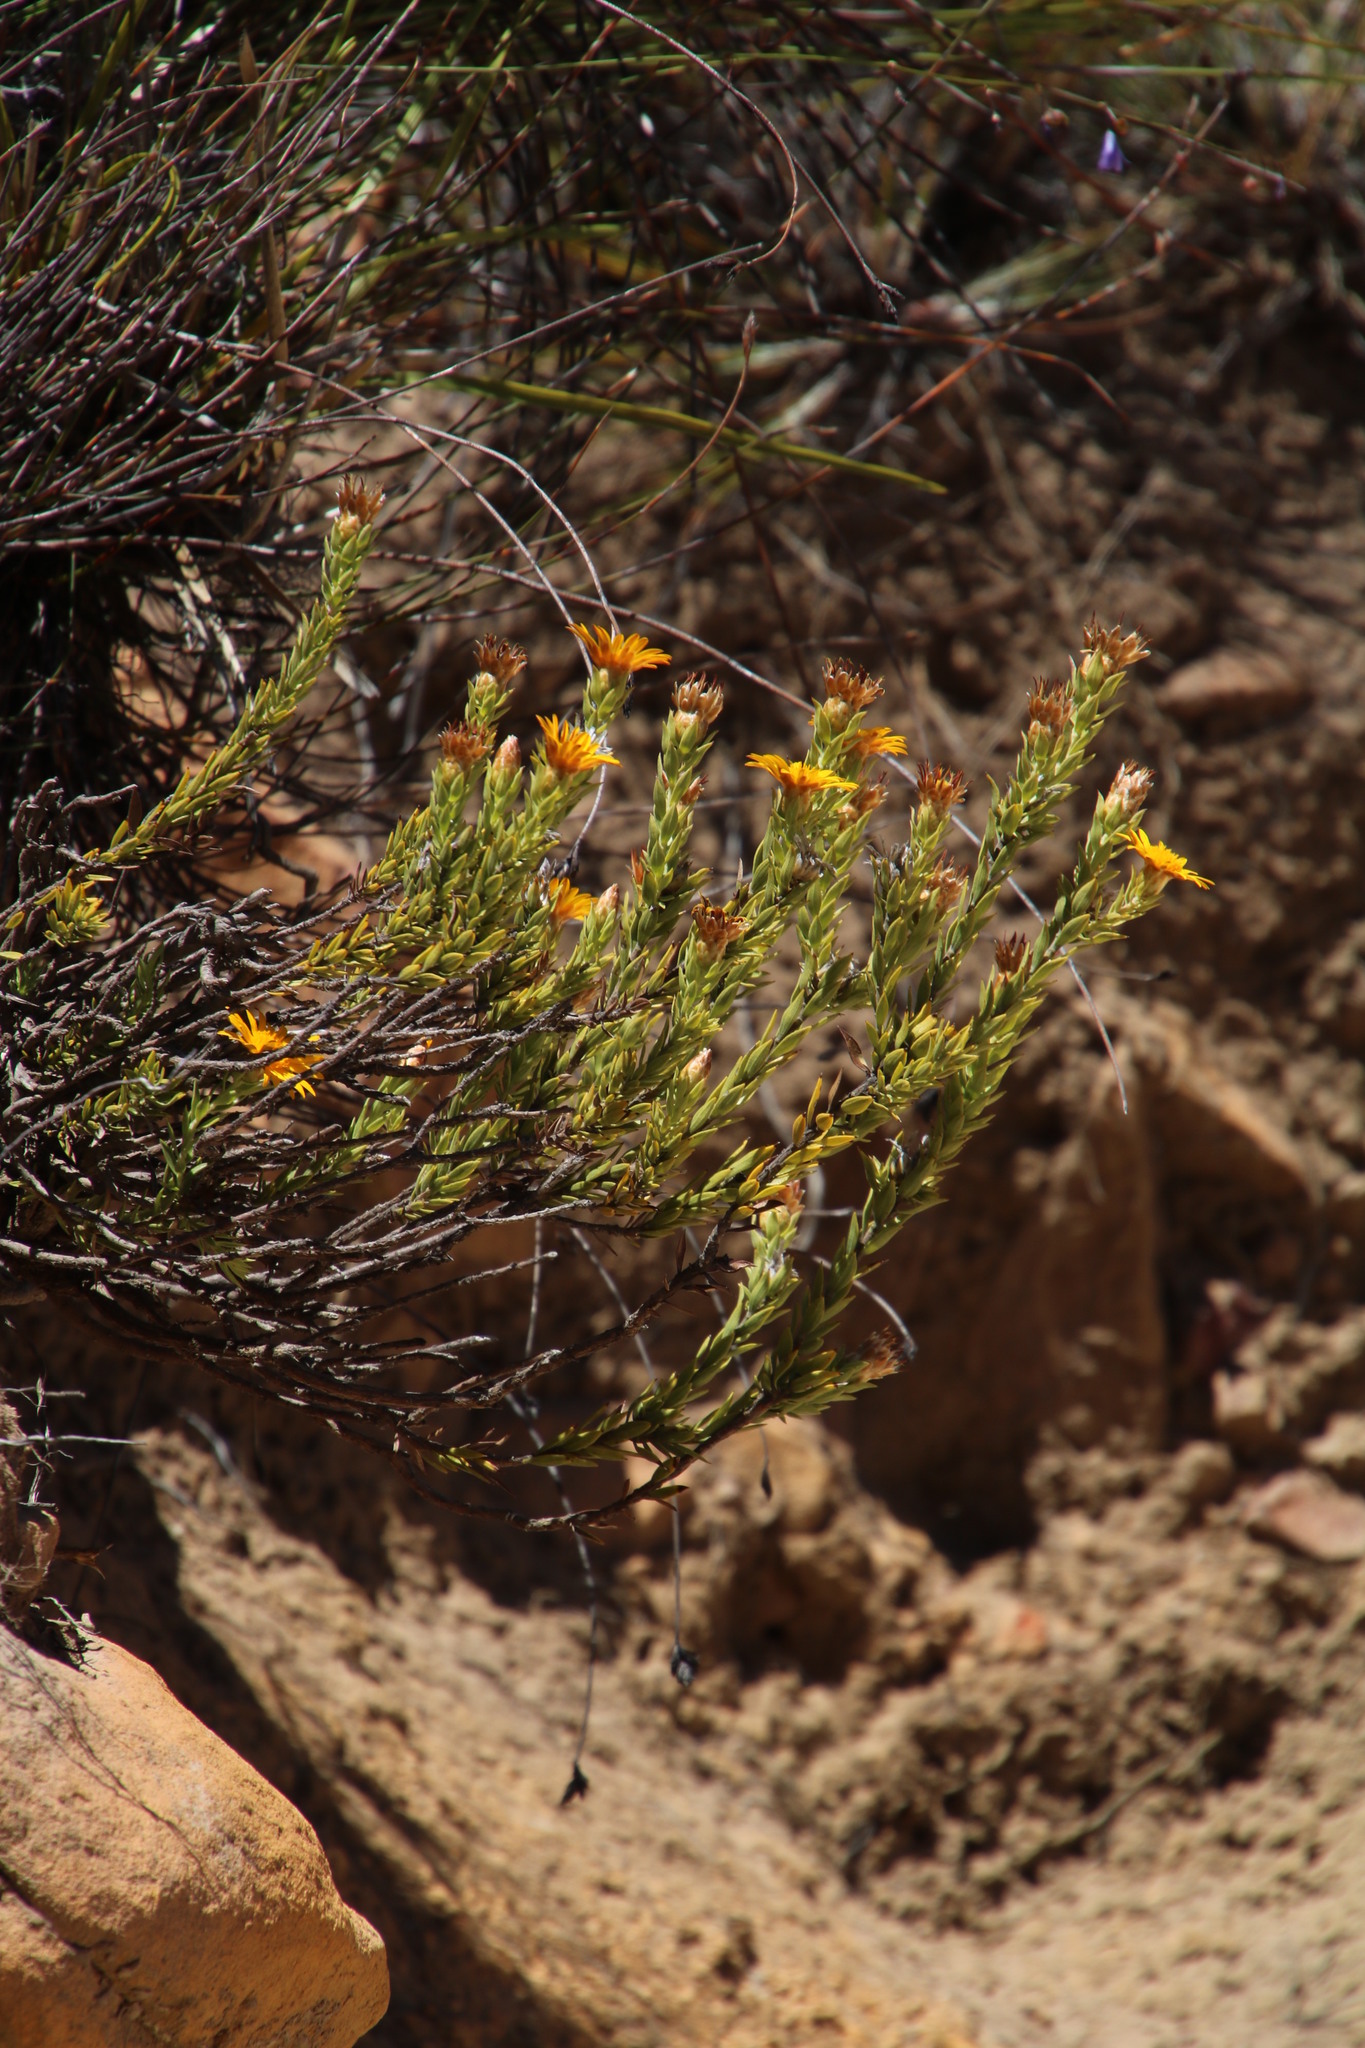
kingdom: Plantae
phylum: Tracheophyta
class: Magnoliopsida
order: Asterales
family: Asteraceae
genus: Oedera
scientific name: Oedera calycina
